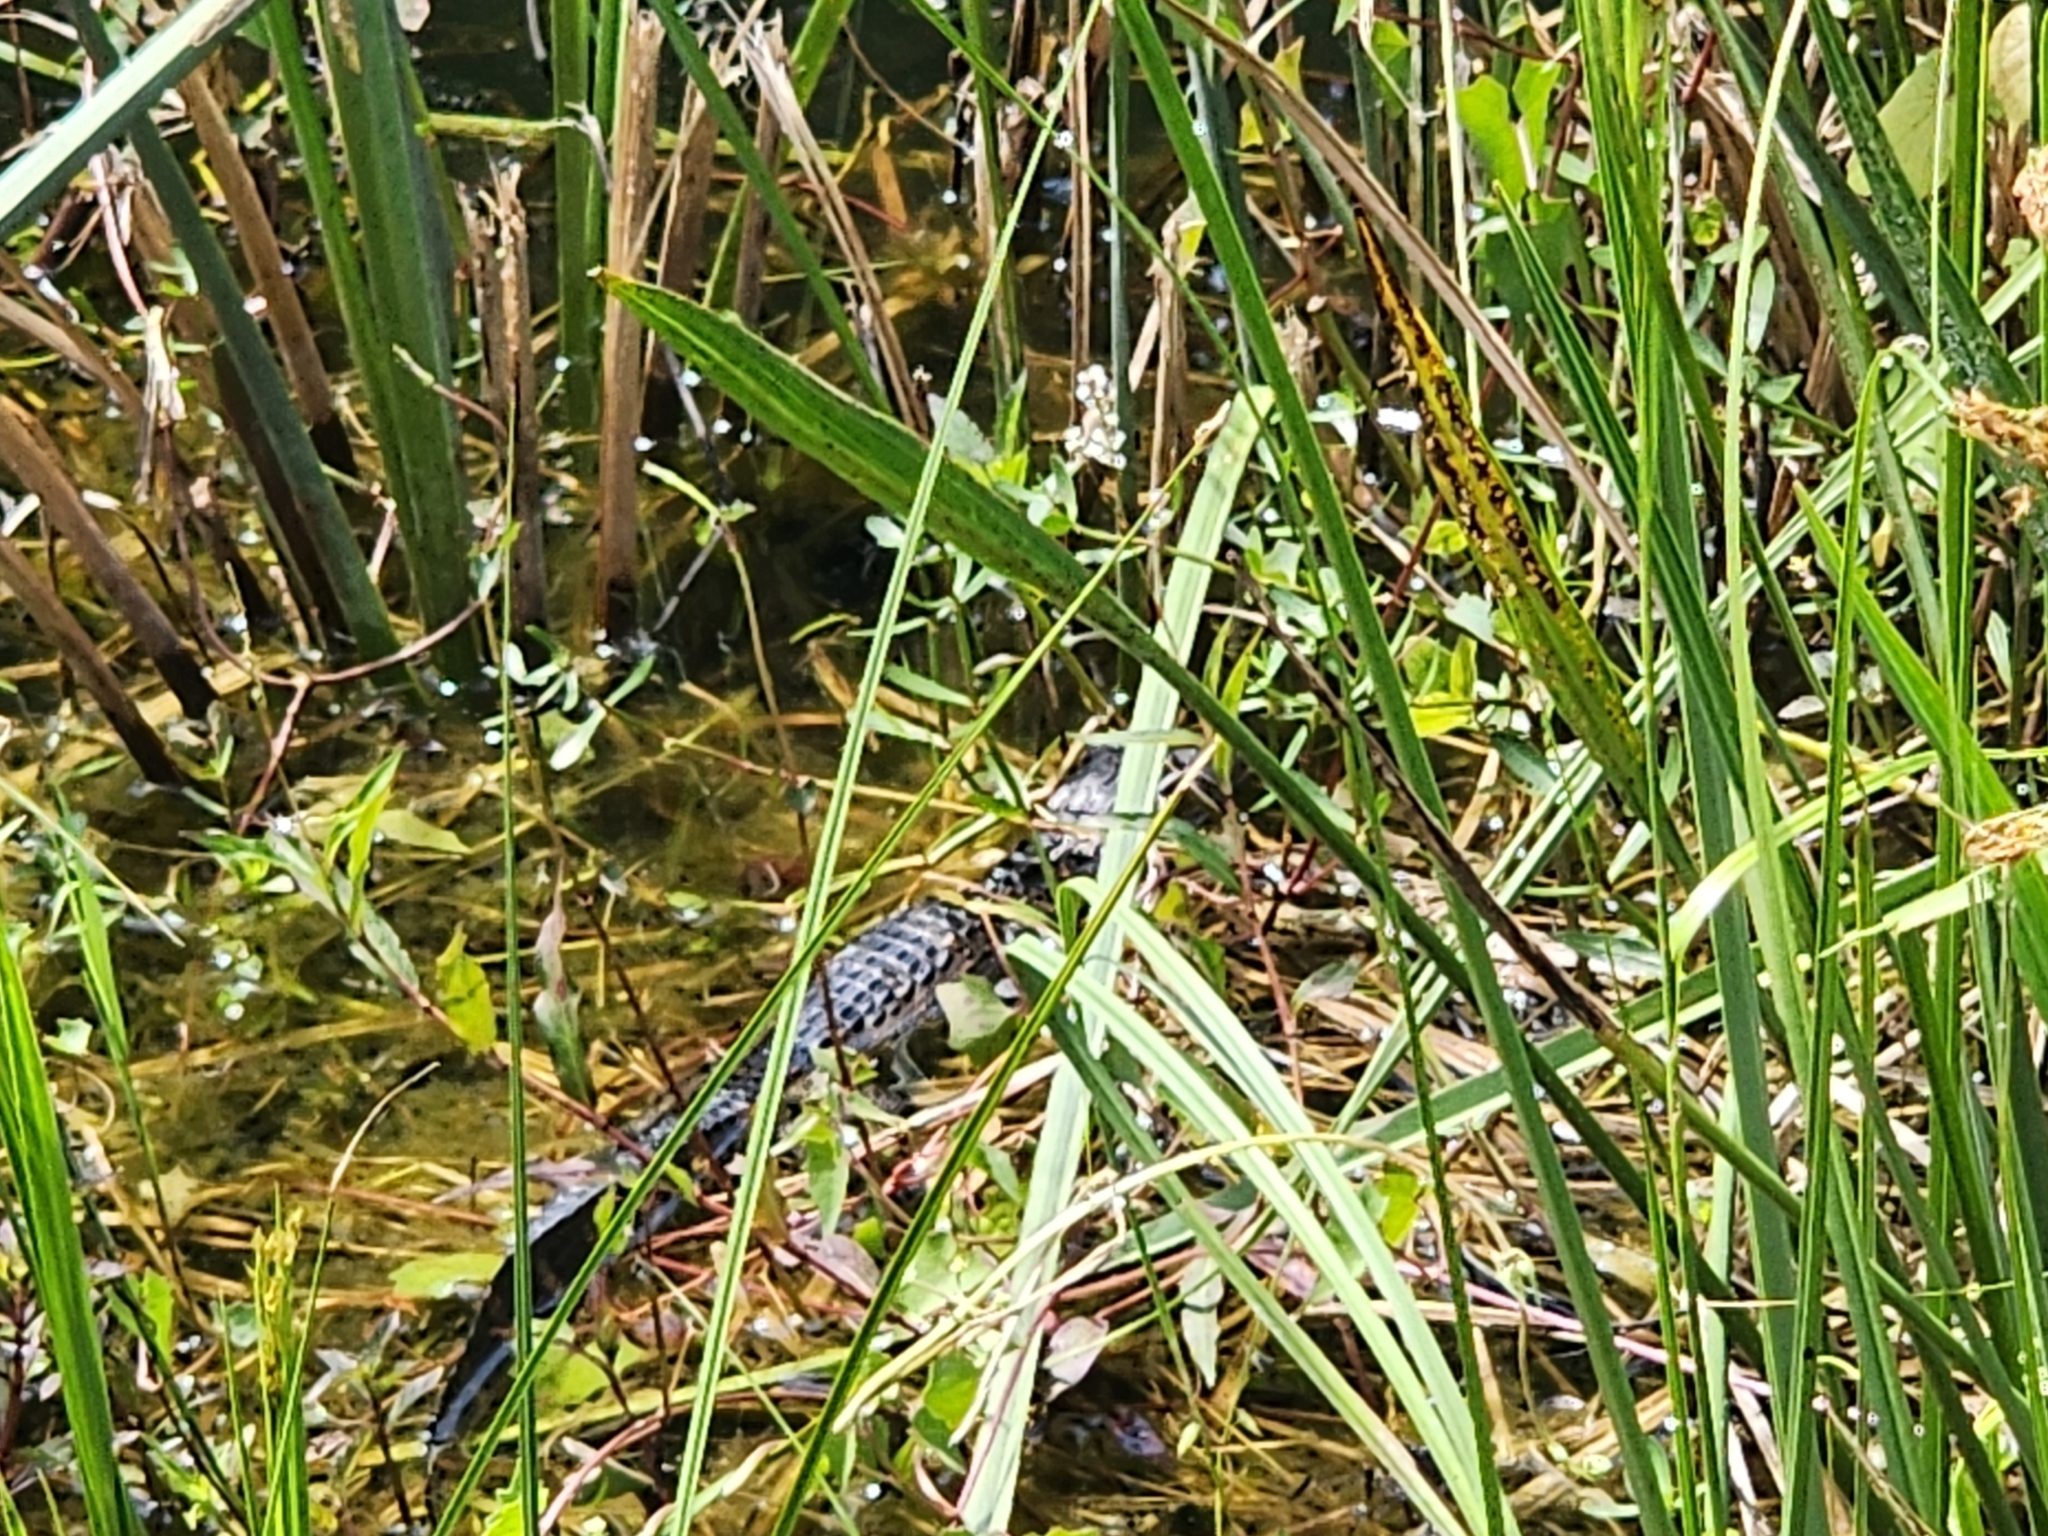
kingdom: Animalia
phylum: Chordata
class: Crocodylia
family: Alligatoridae
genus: Alligator
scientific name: Alligator mississippiensis
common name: American alligator
